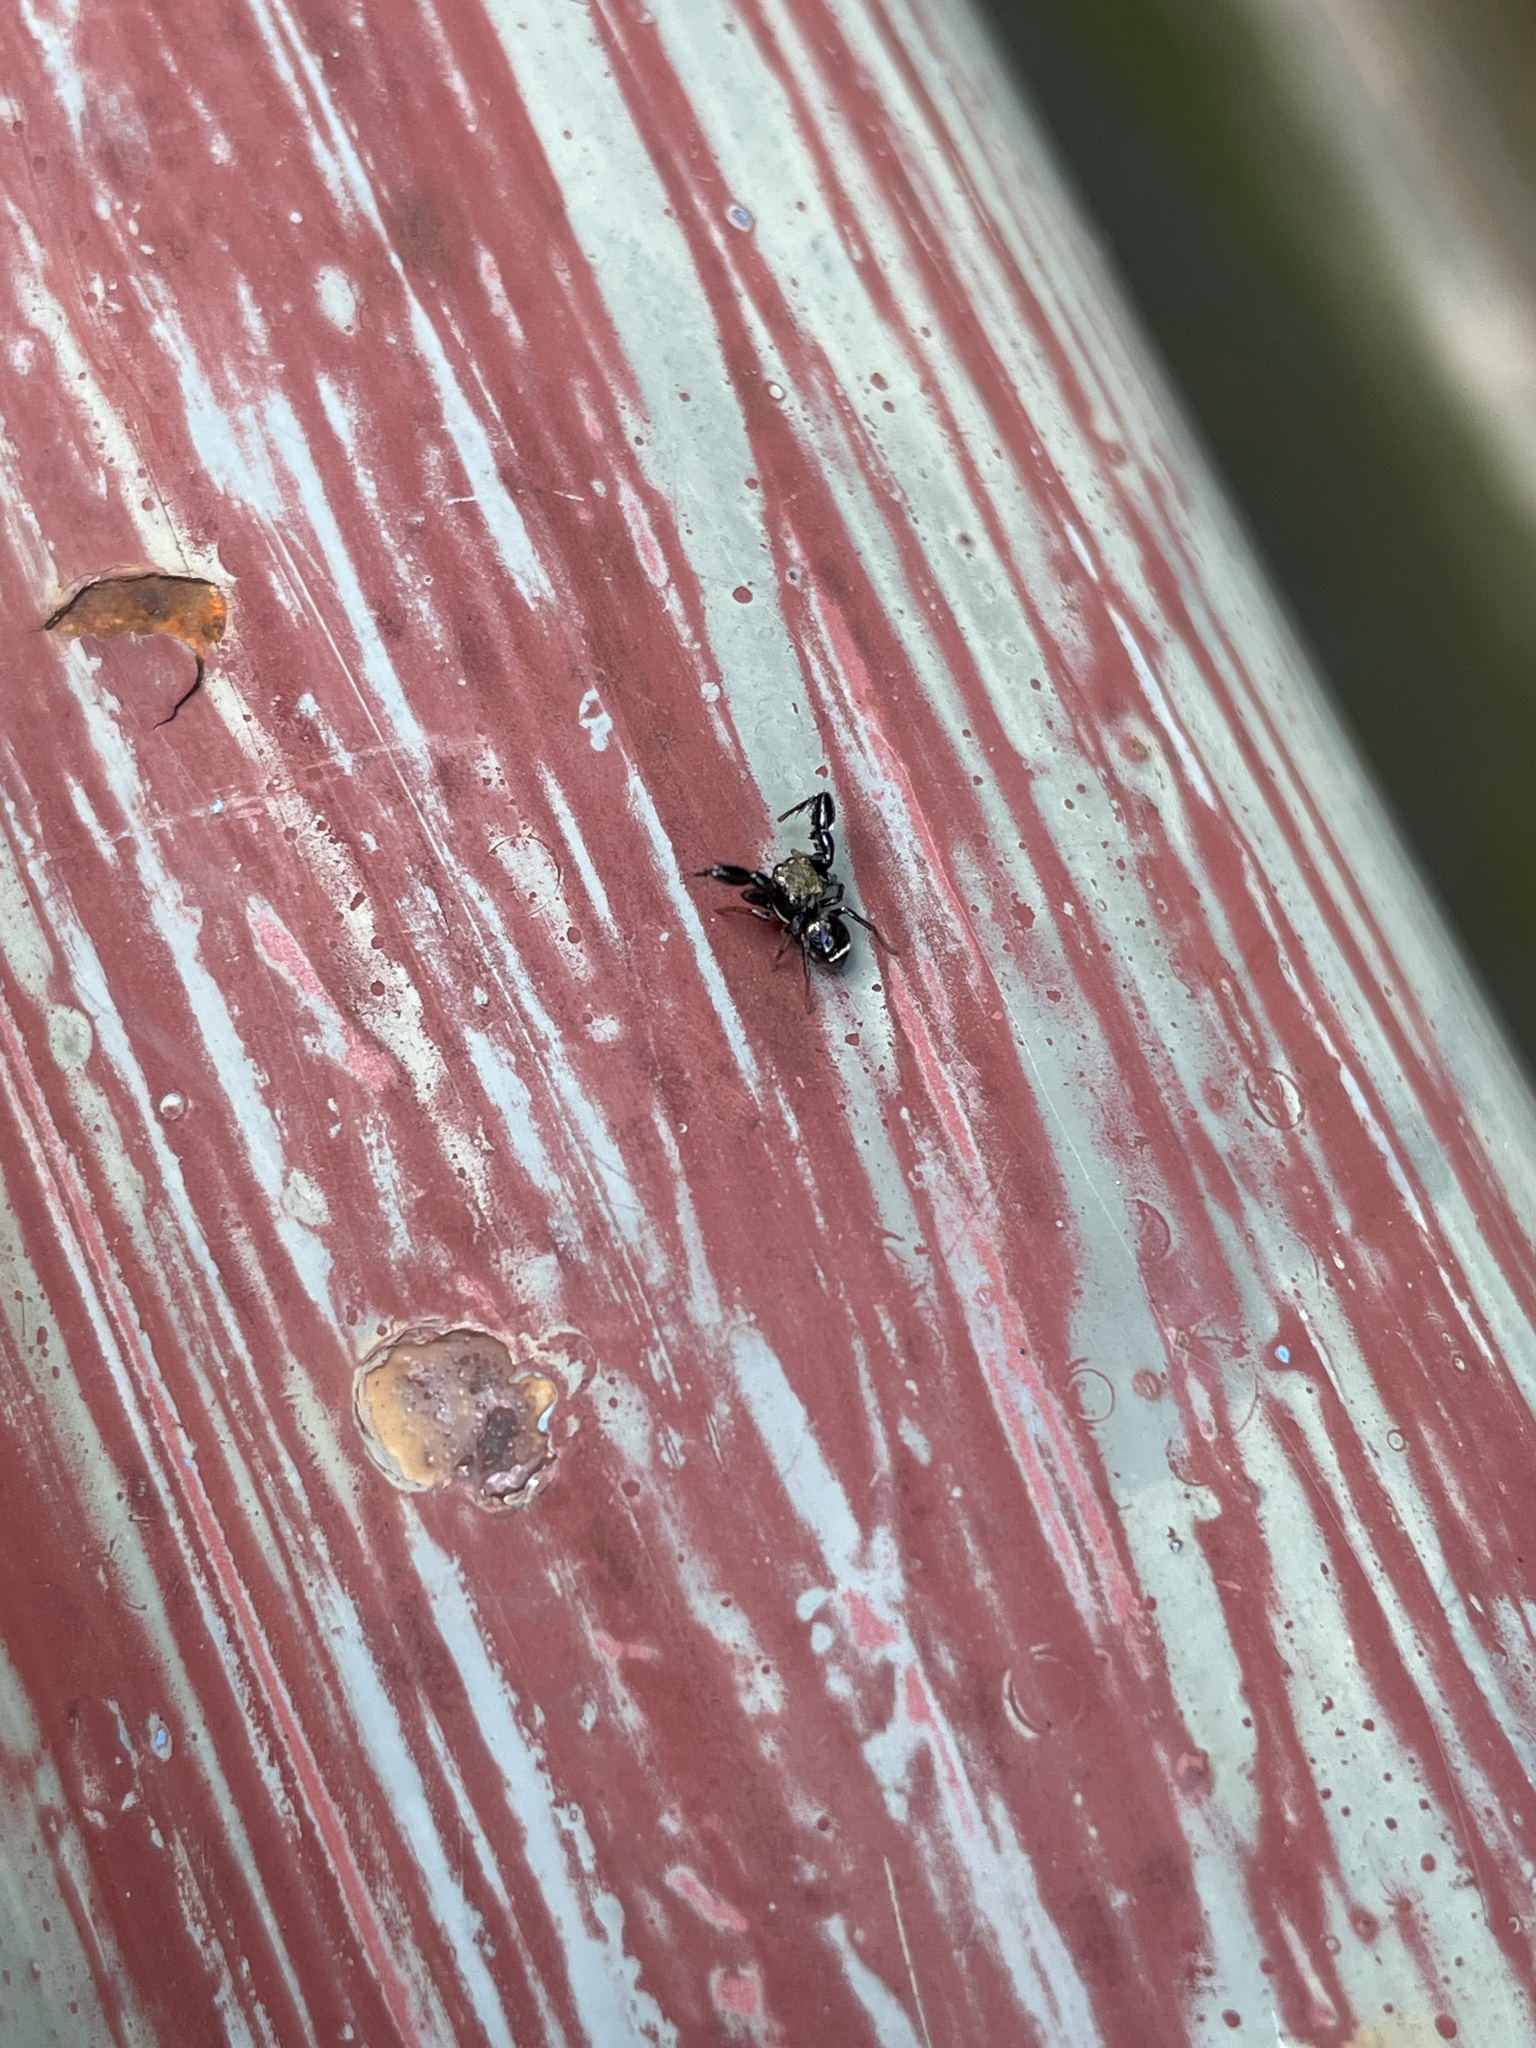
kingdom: Animalia
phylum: Arthropoda
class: Arachnida
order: Araneae
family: Salticidae
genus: Harmochirus
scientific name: Harmochirus insulanus
